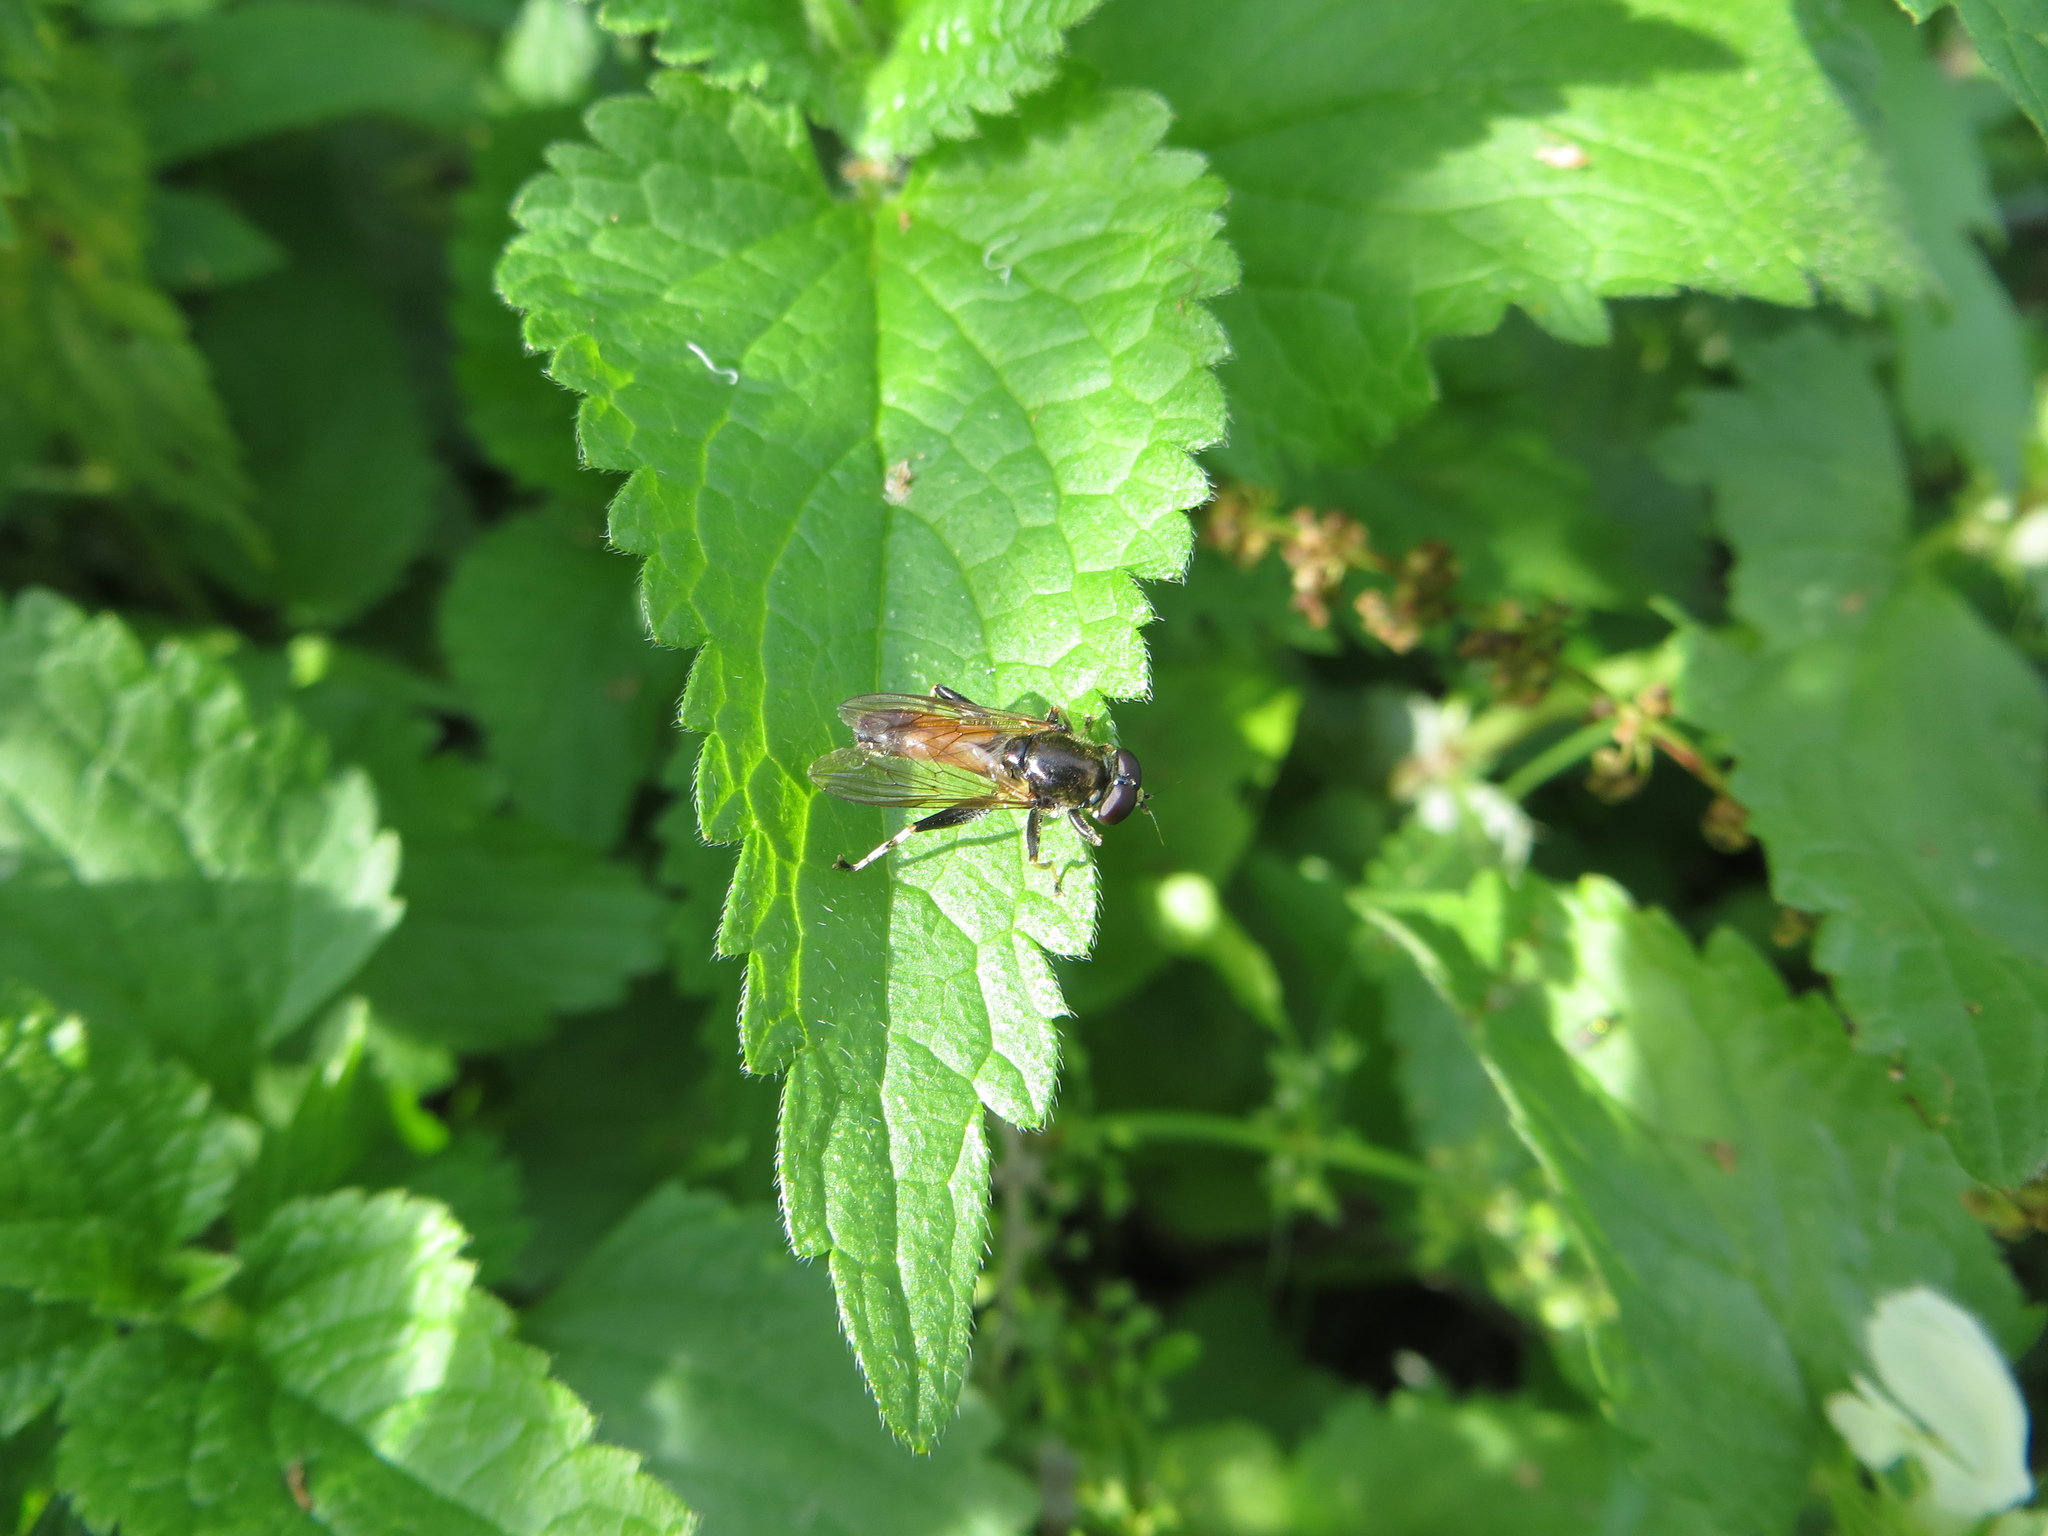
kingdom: Animalia
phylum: Arthropoda
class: Insecta
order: Diptera
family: Syrphidae
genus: Xylota
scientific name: Xylota segnis
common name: Brown-toed forest fly
